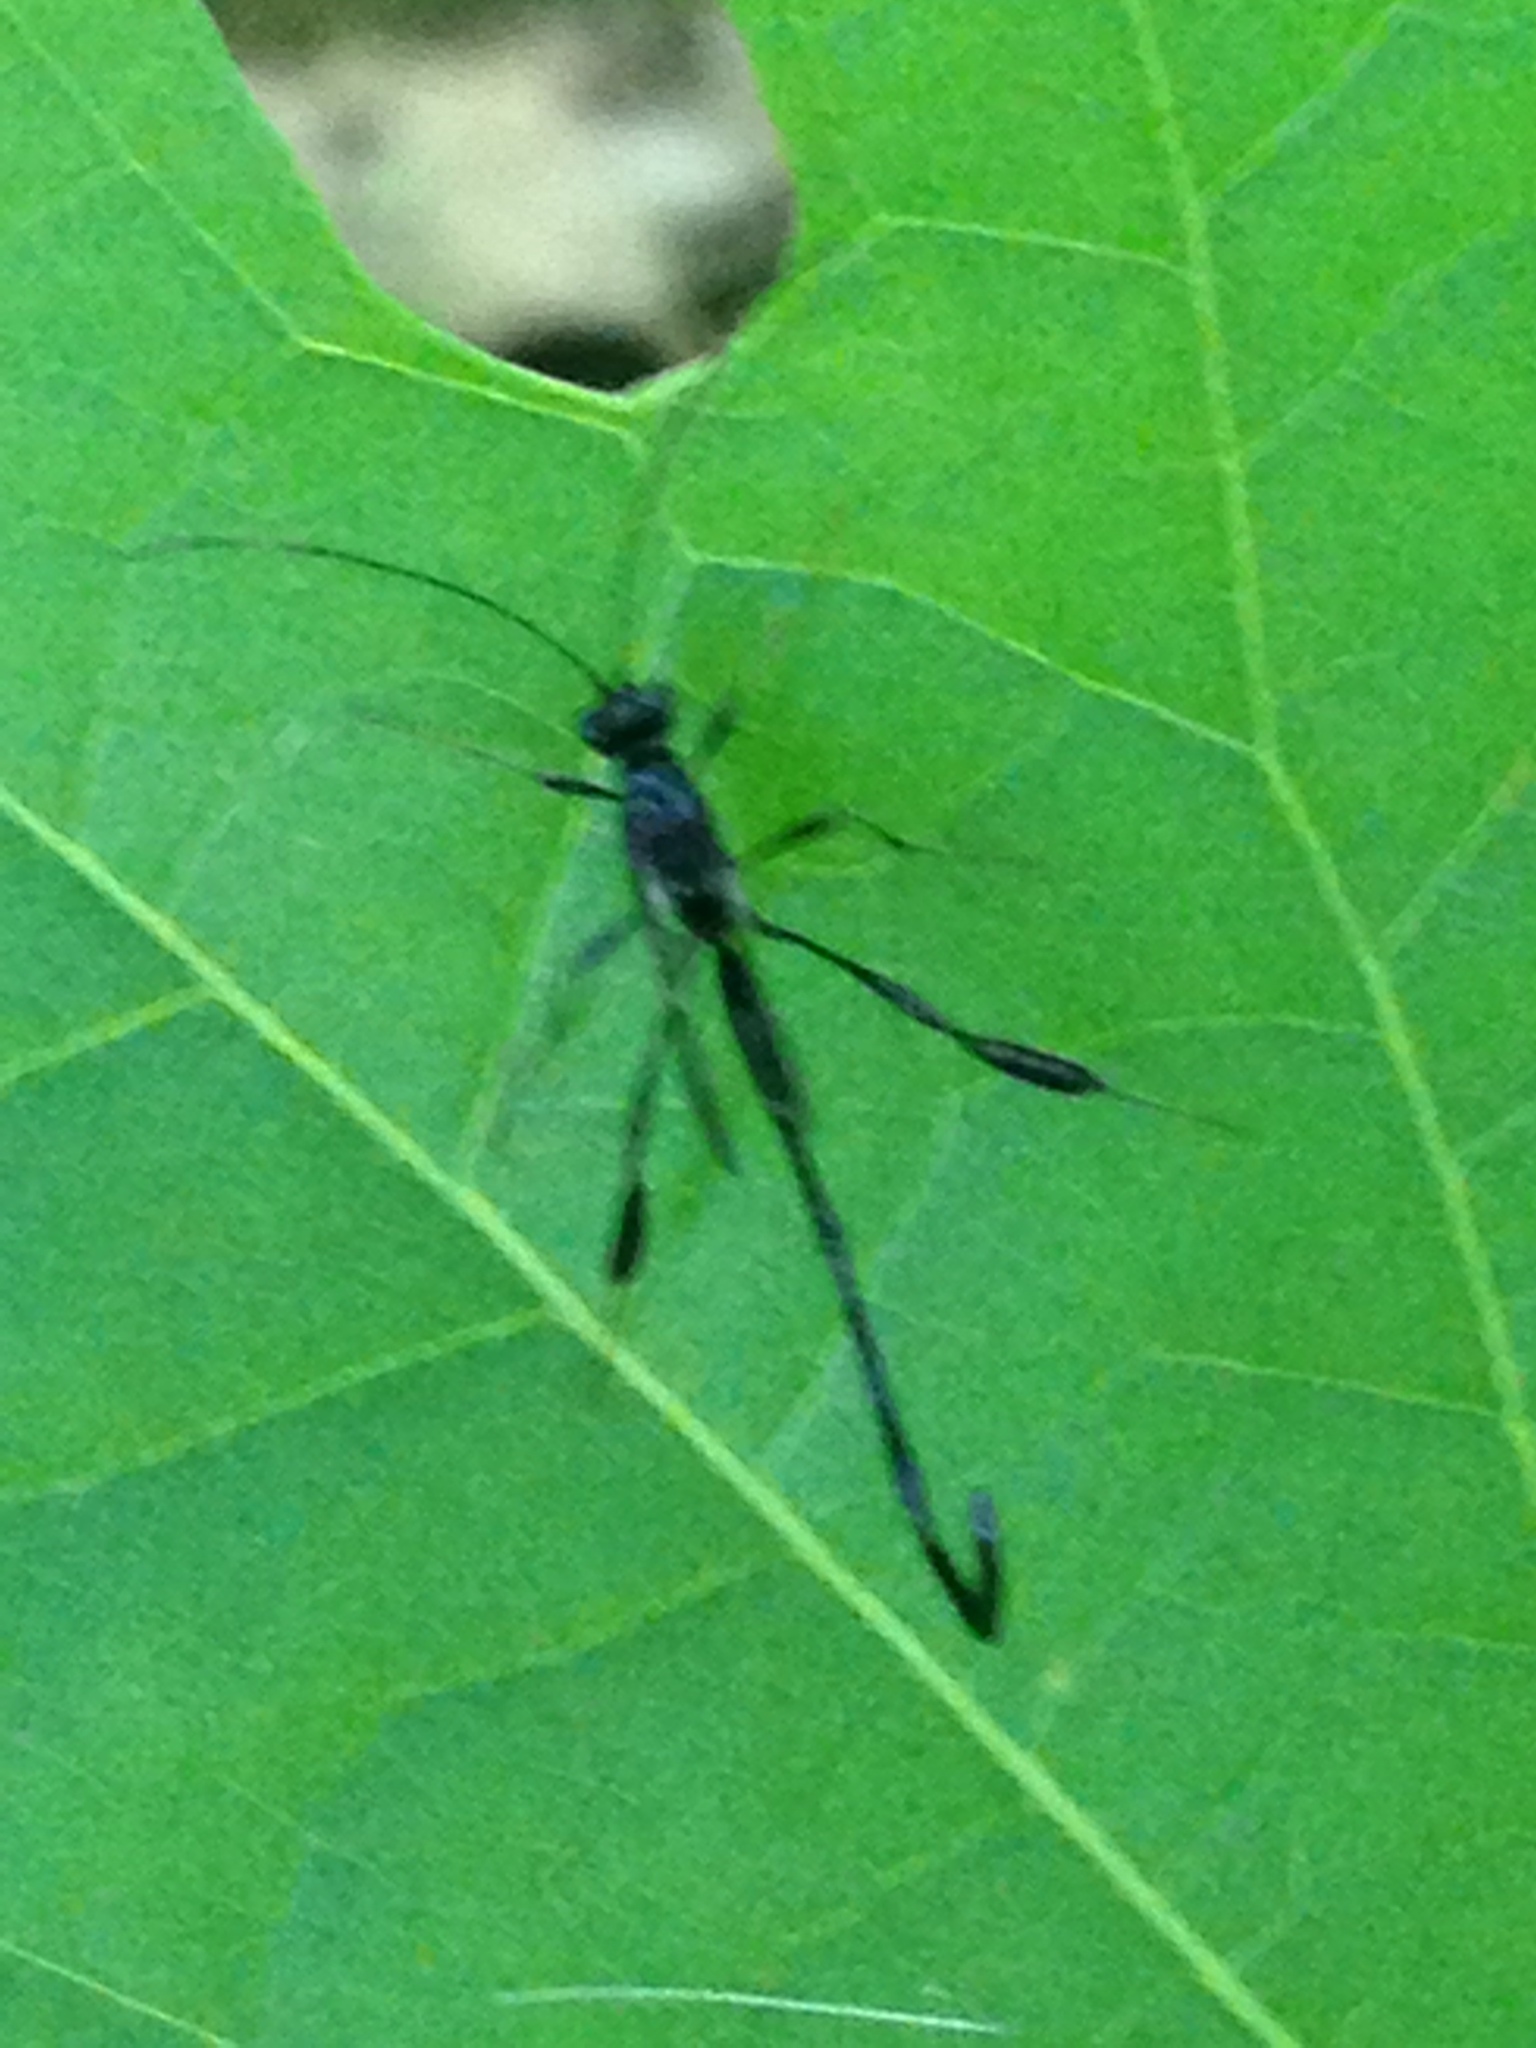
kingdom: Animalia
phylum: Arthropoda
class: Insecta
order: Hymenoptera
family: Pelecinidae
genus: Pelecinus
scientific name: Pelecinus polyturator
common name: American pelecinid wasp
